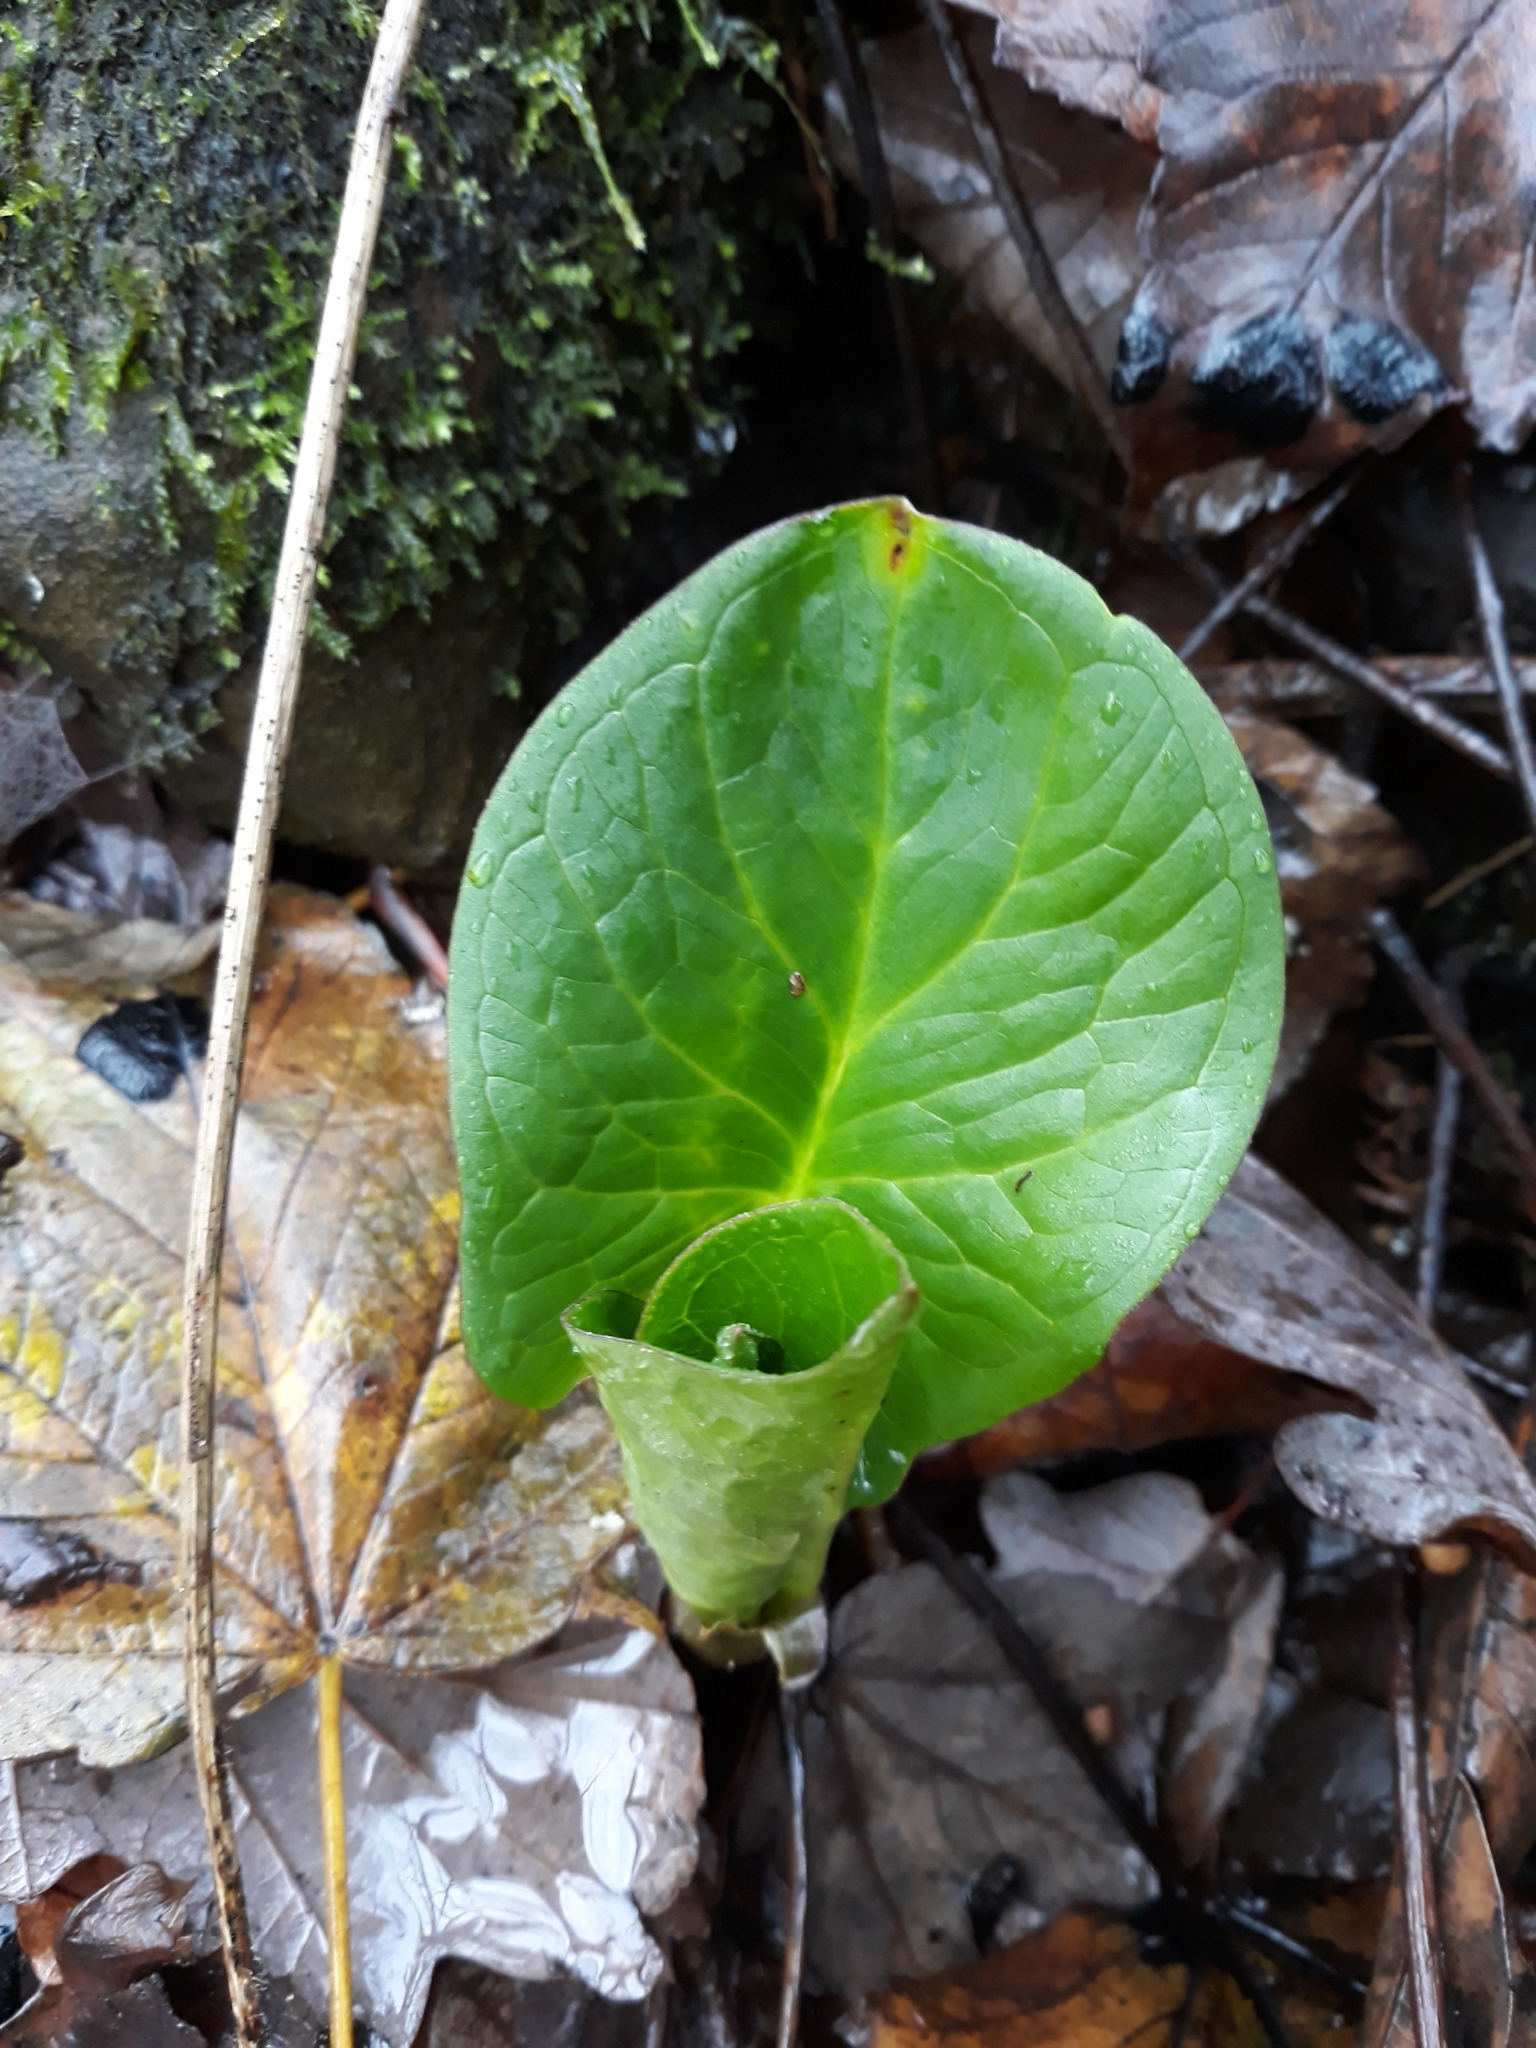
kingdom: Plantae
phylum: Tracheophyta
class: Liliopsida
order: Alismatales
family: Araceae
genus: Arum
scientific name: Arum maculatum
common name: Lords-and-ladies
